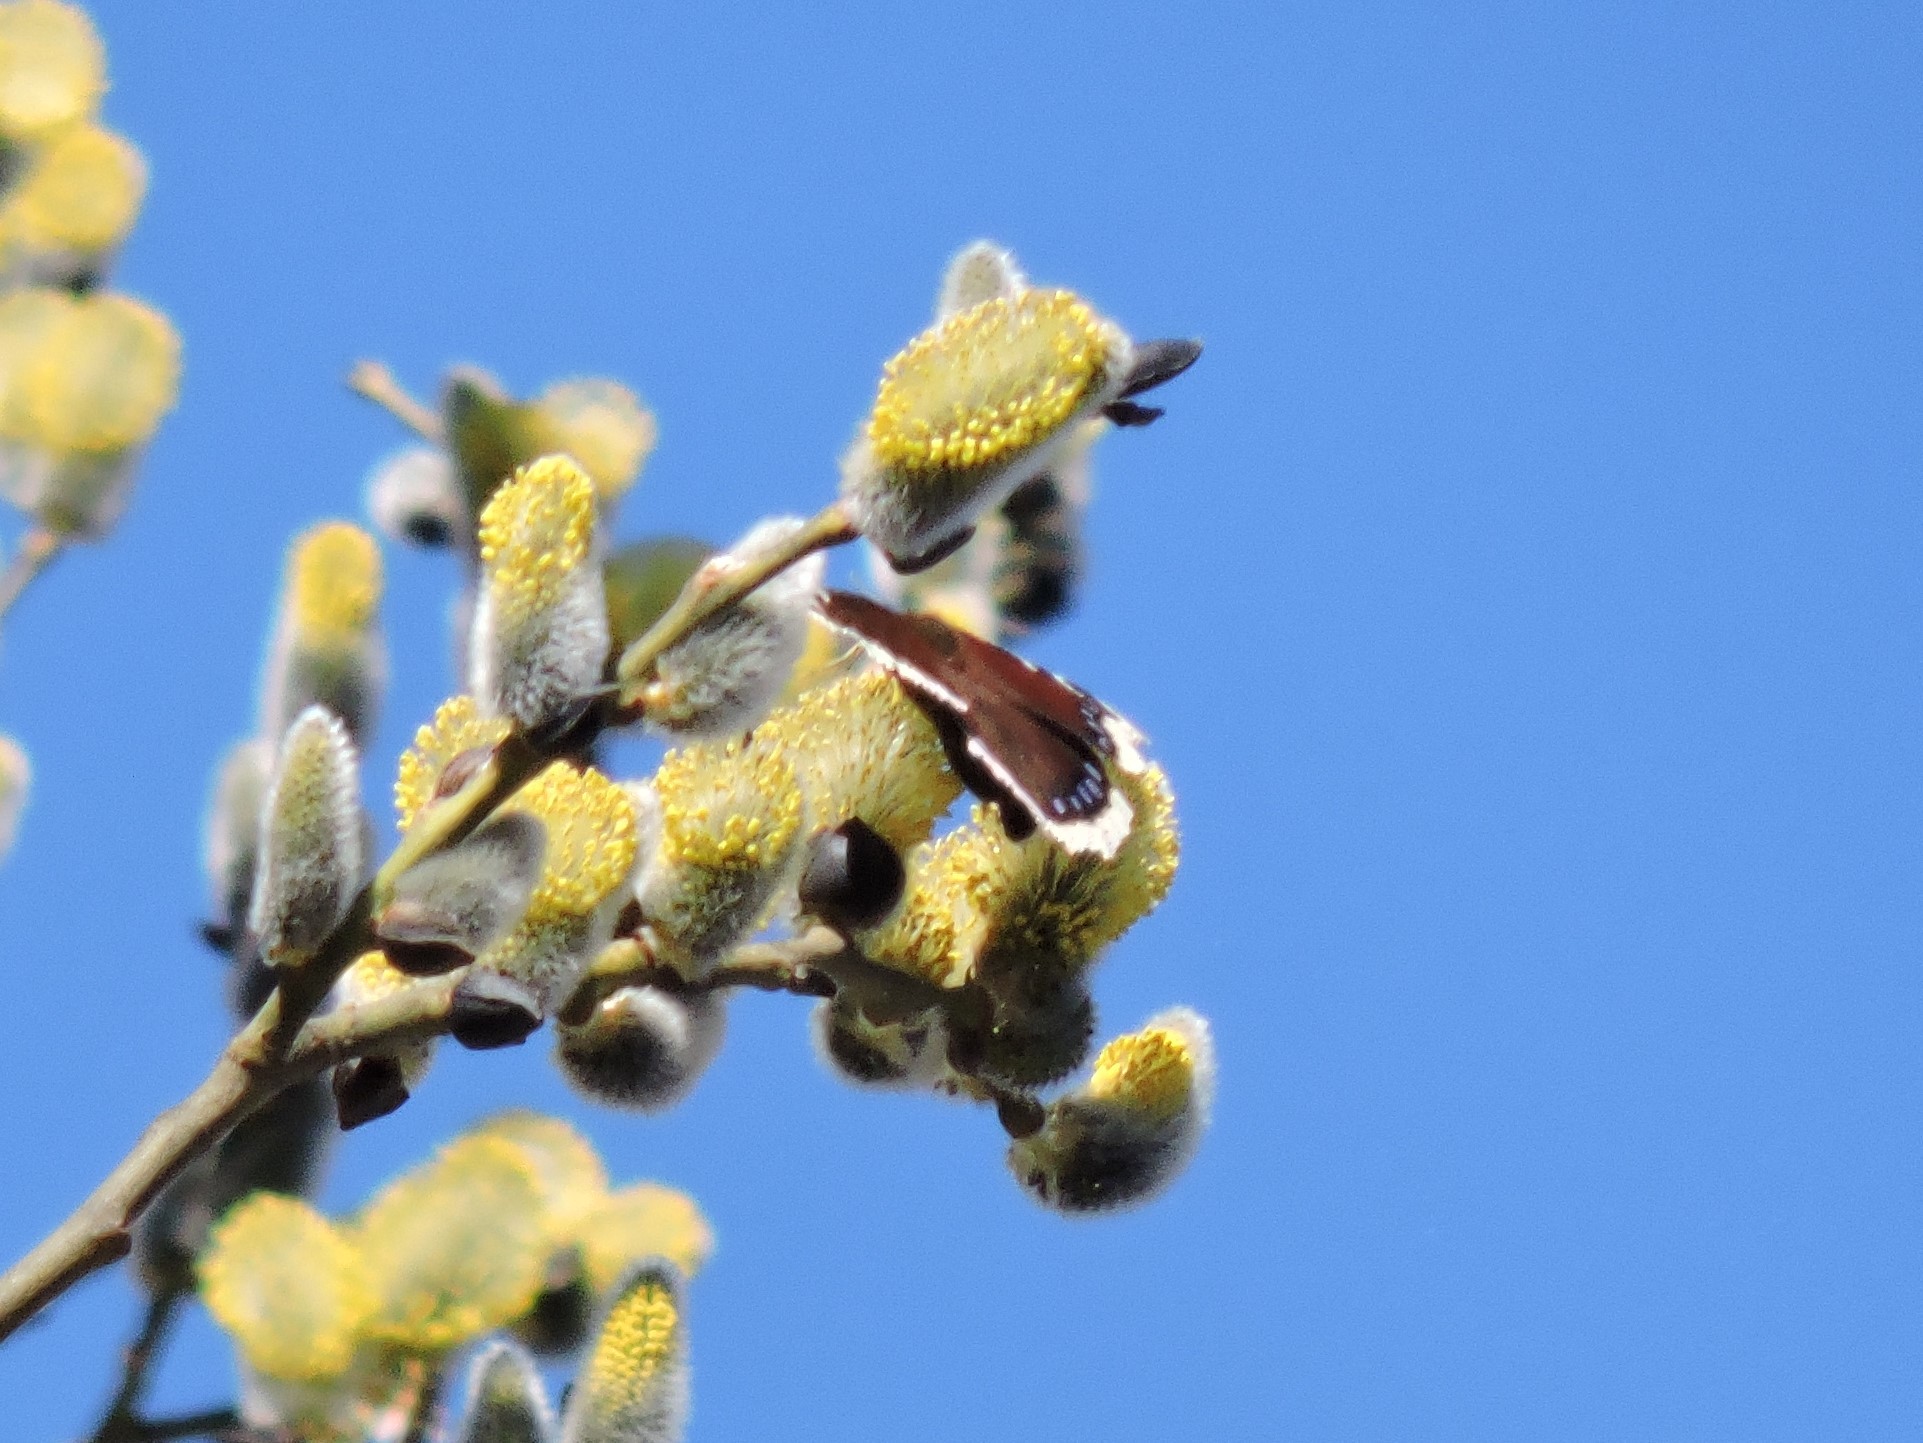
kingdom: Animalia
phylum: Arthropoda
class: Insecta
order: Lepidoptera
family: Nymphalidae
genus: Nymphalis
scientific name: Nymphalis antiopa
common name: Camberwell beauty
